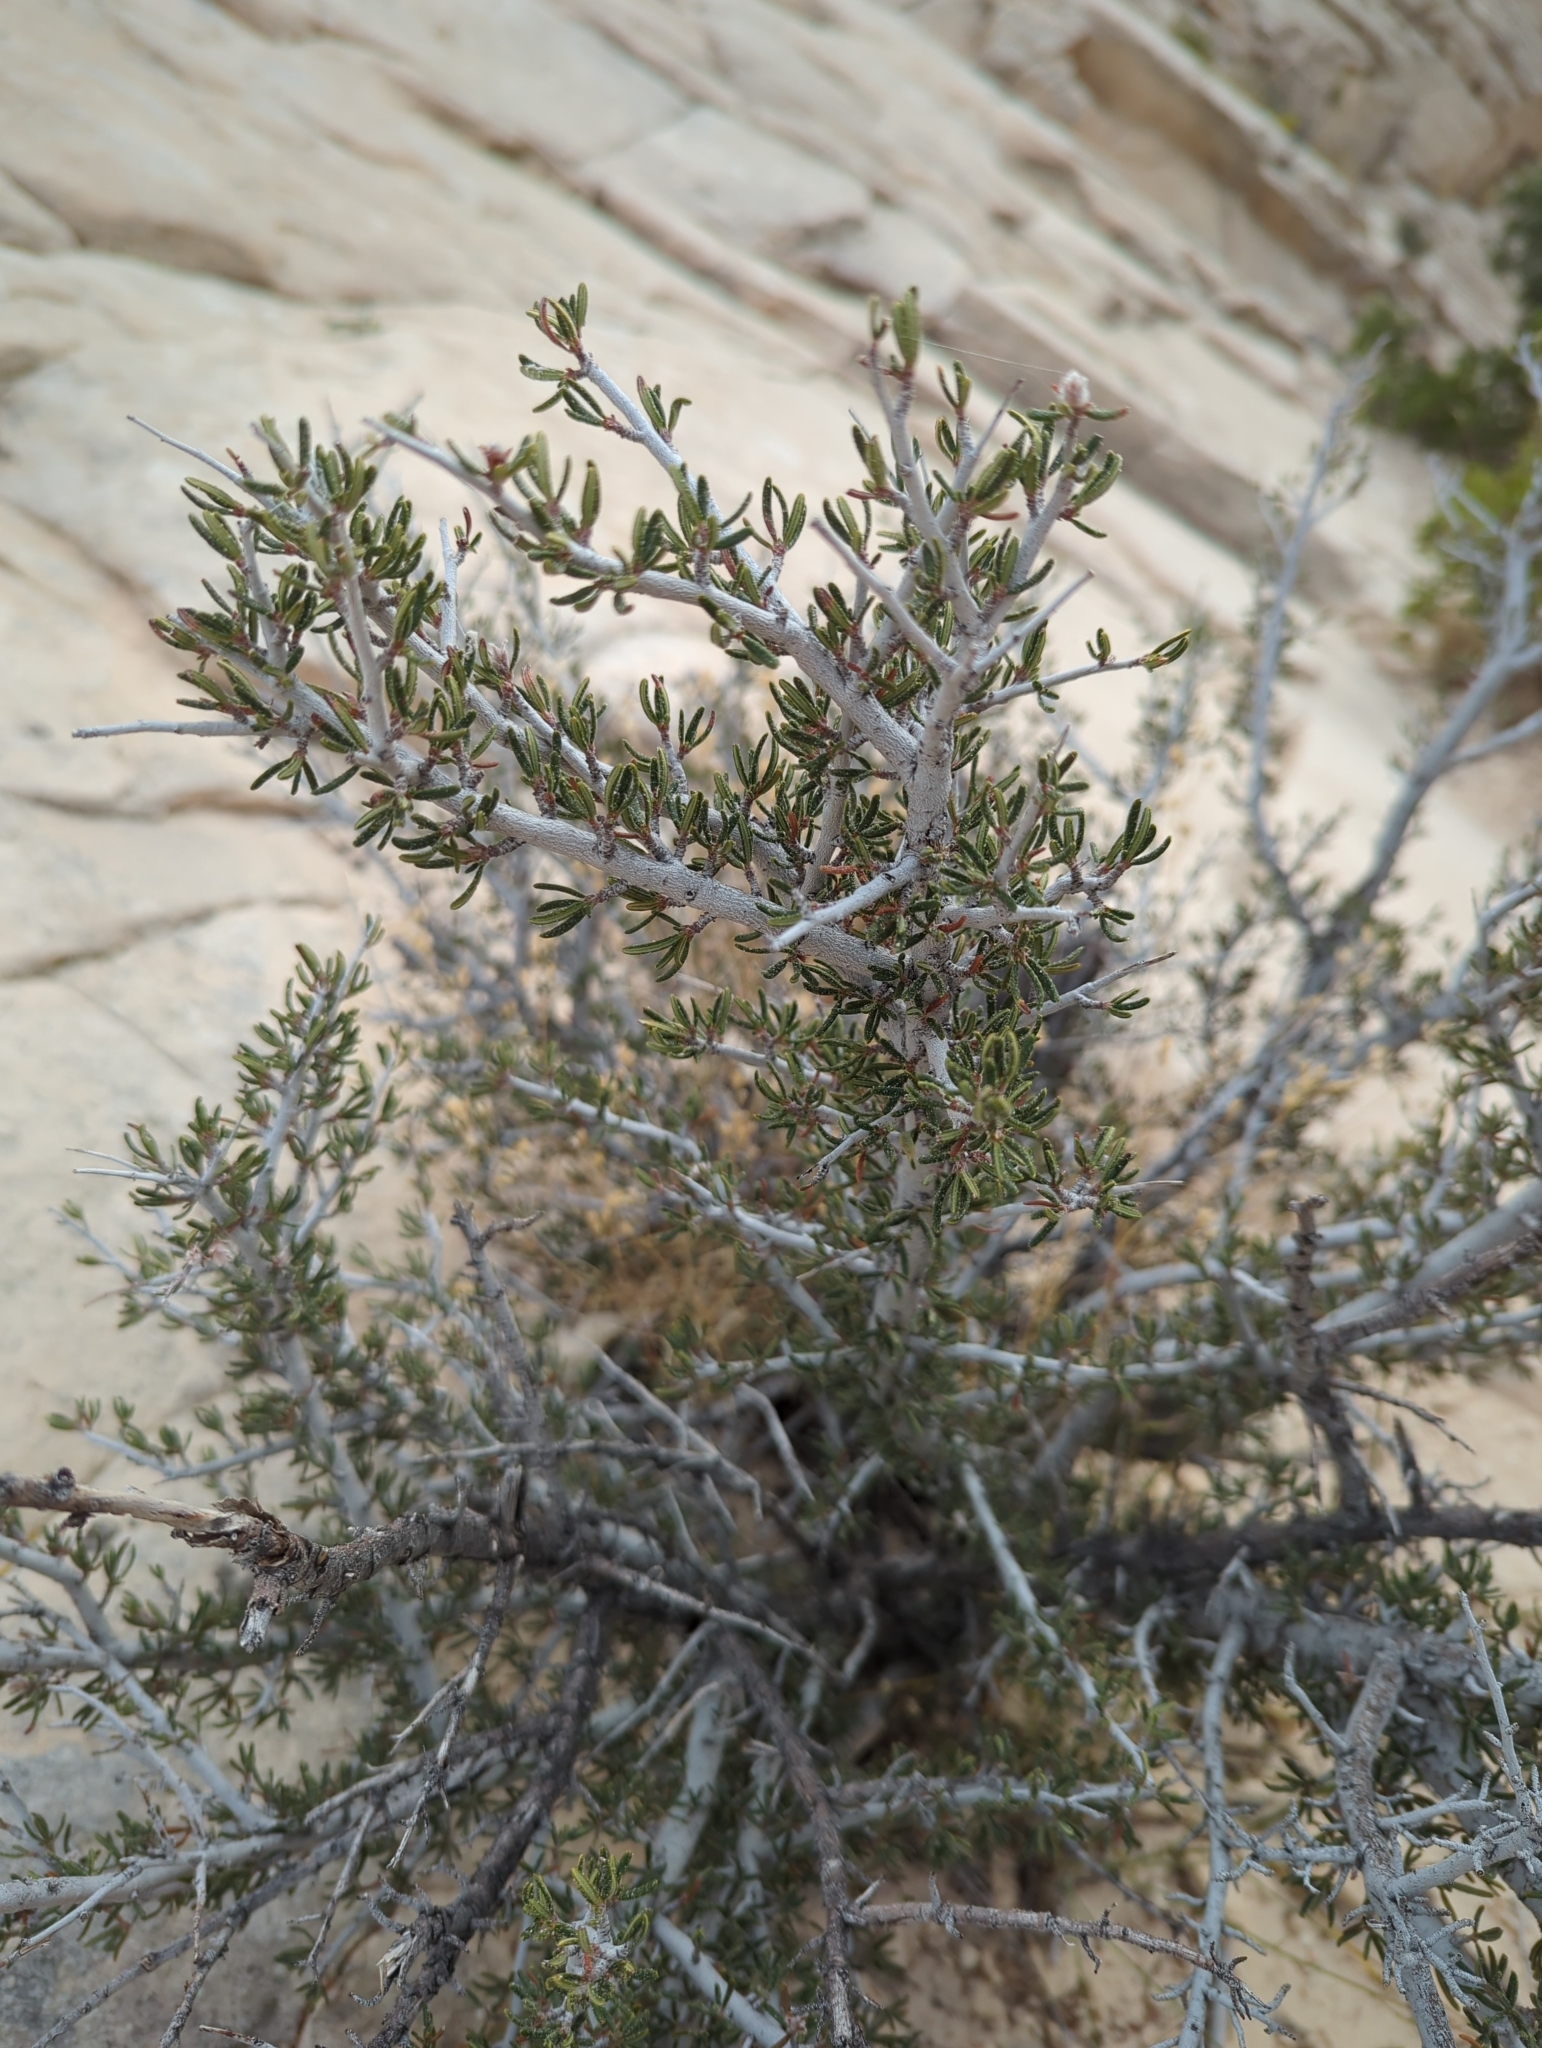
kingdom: Plantae
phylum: Tracheophyta
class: Magnoliopsida
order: Rosales
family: Rosaceae
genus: Cercocarpus
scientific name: Cercocarpus intricatus
